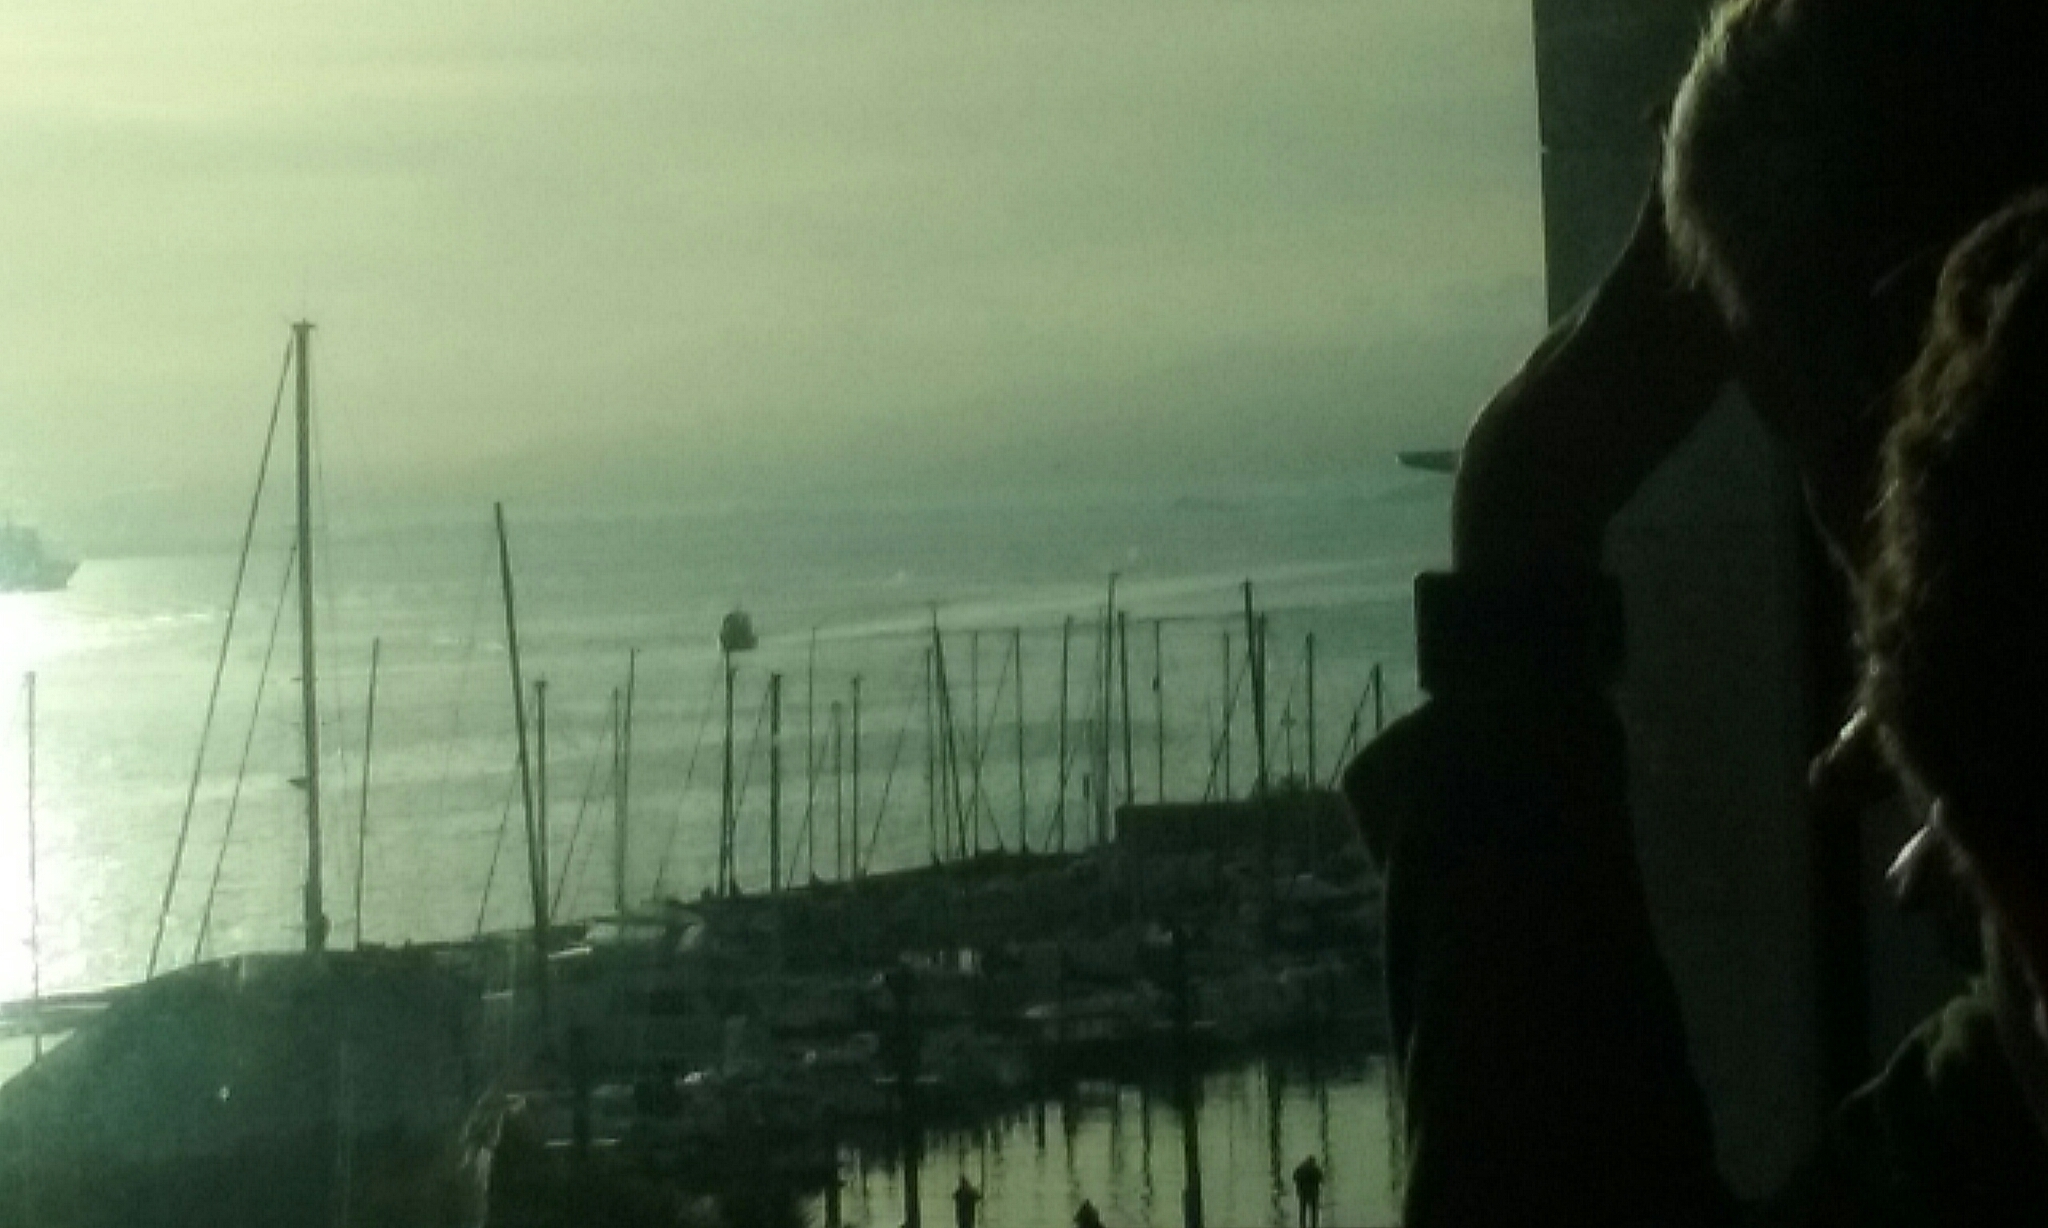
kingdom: Animalia
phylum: Chordata
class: Mammalia
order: Cetacea
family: Balaenidae
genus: Eubalaena
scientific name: Eubalaena australis
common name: Southern right whale
